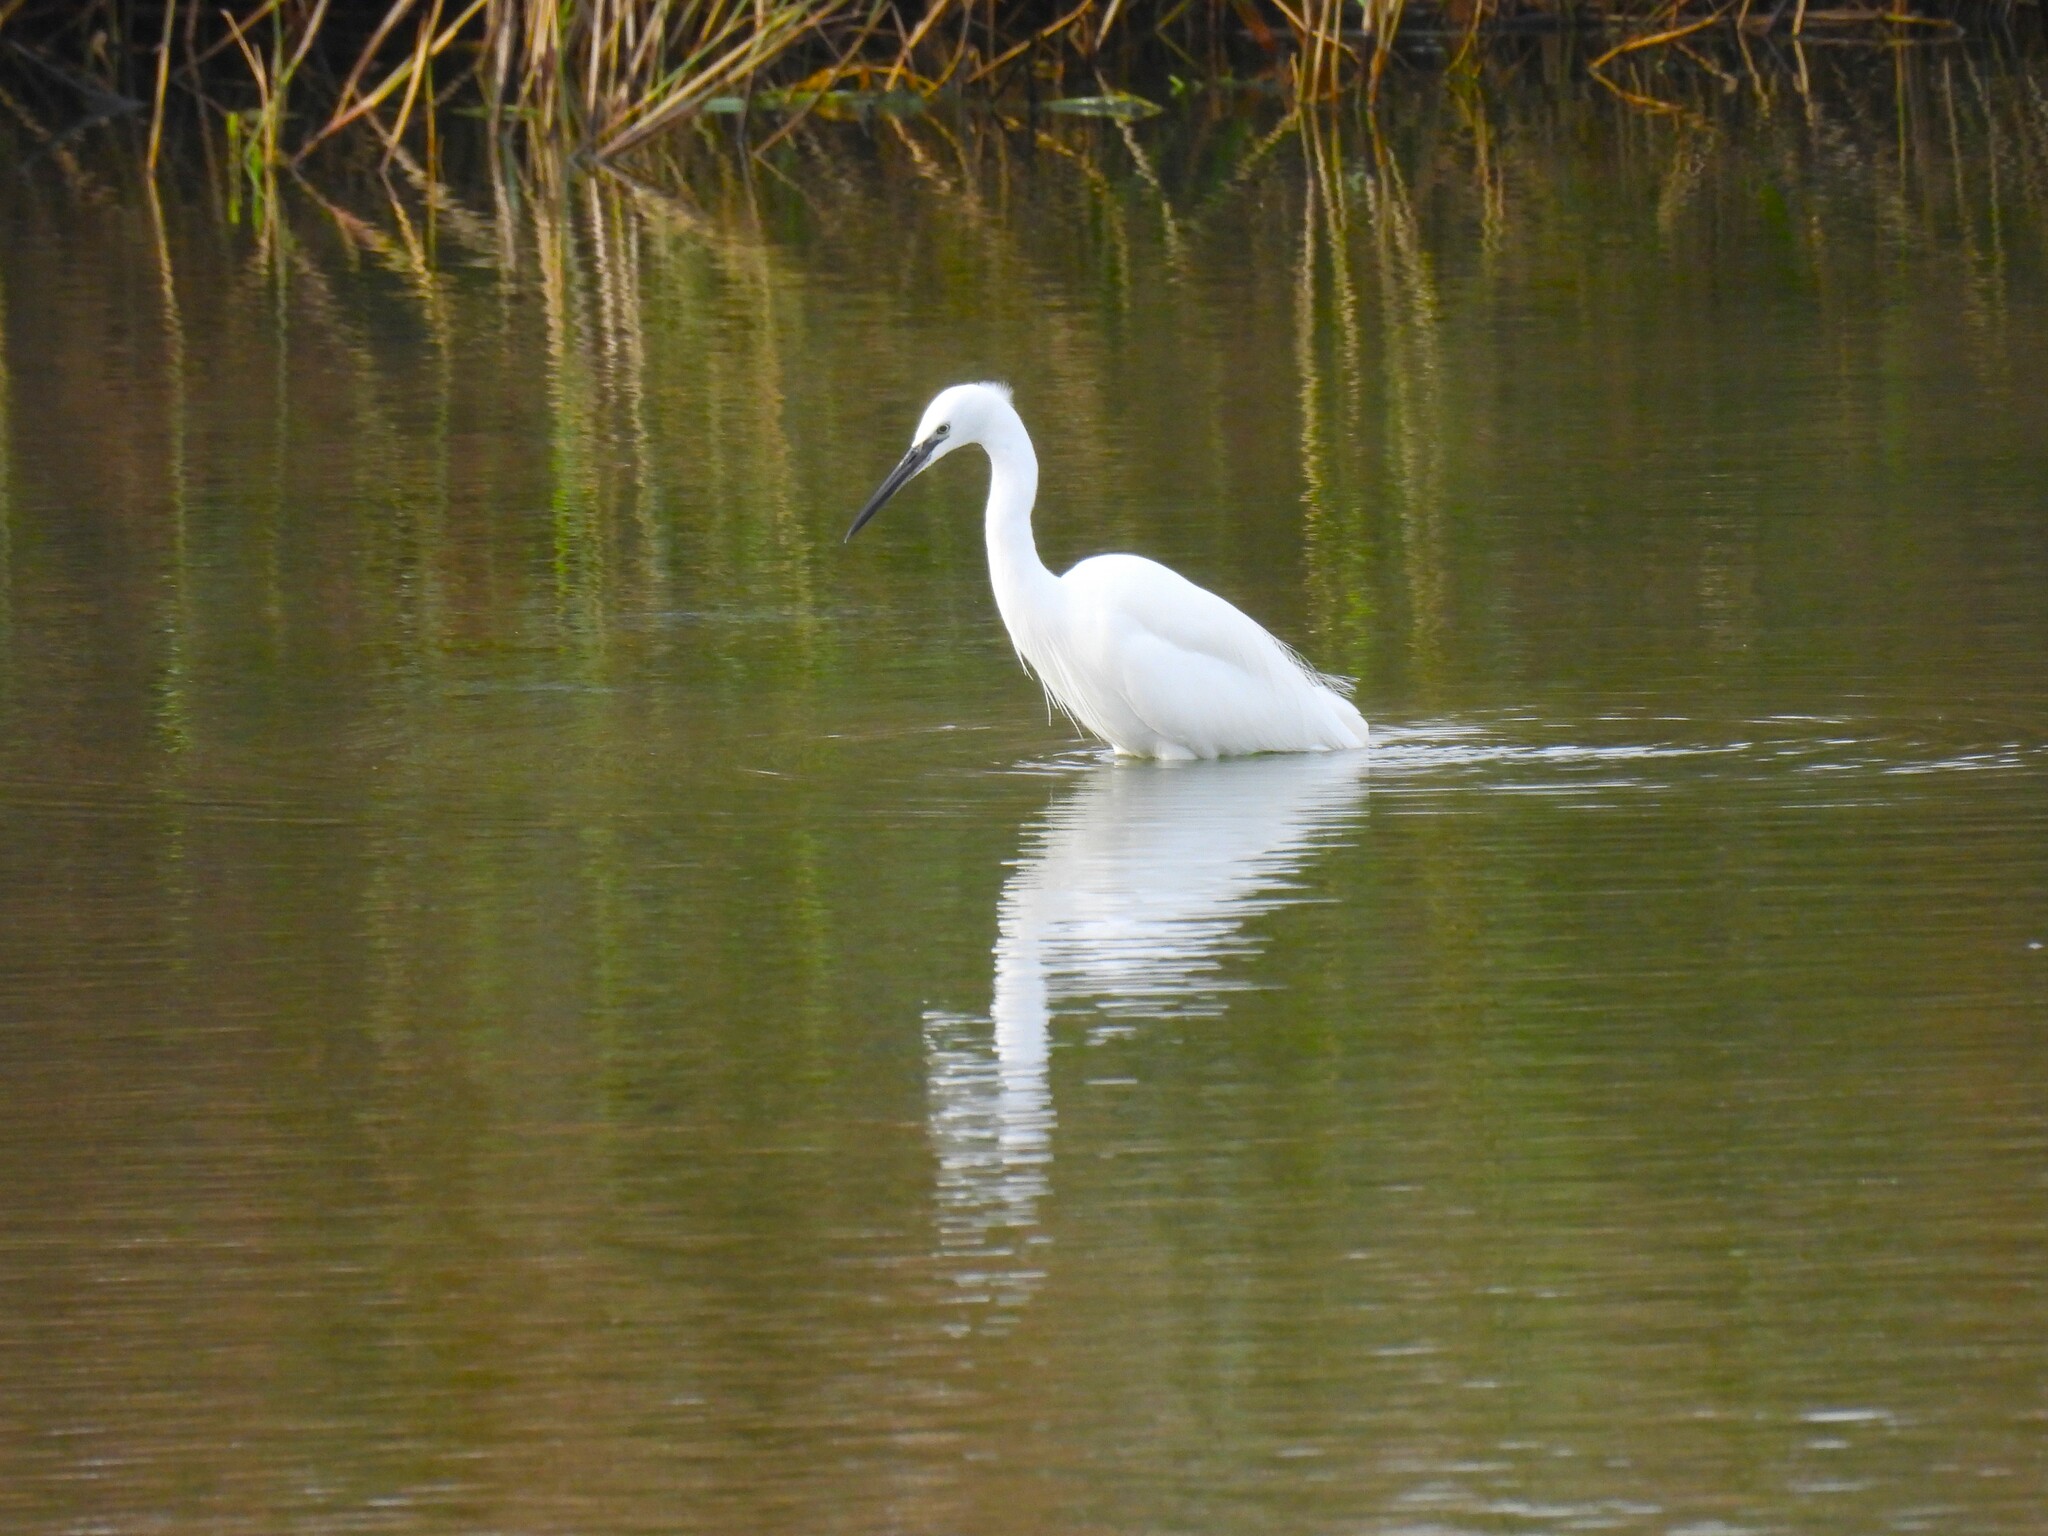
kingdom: Animalia
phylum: Chordata
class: Aves
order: Pelecaniformes
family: Ardeidae
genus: Egretta
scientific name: Egretta garzetta
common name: Little egret
